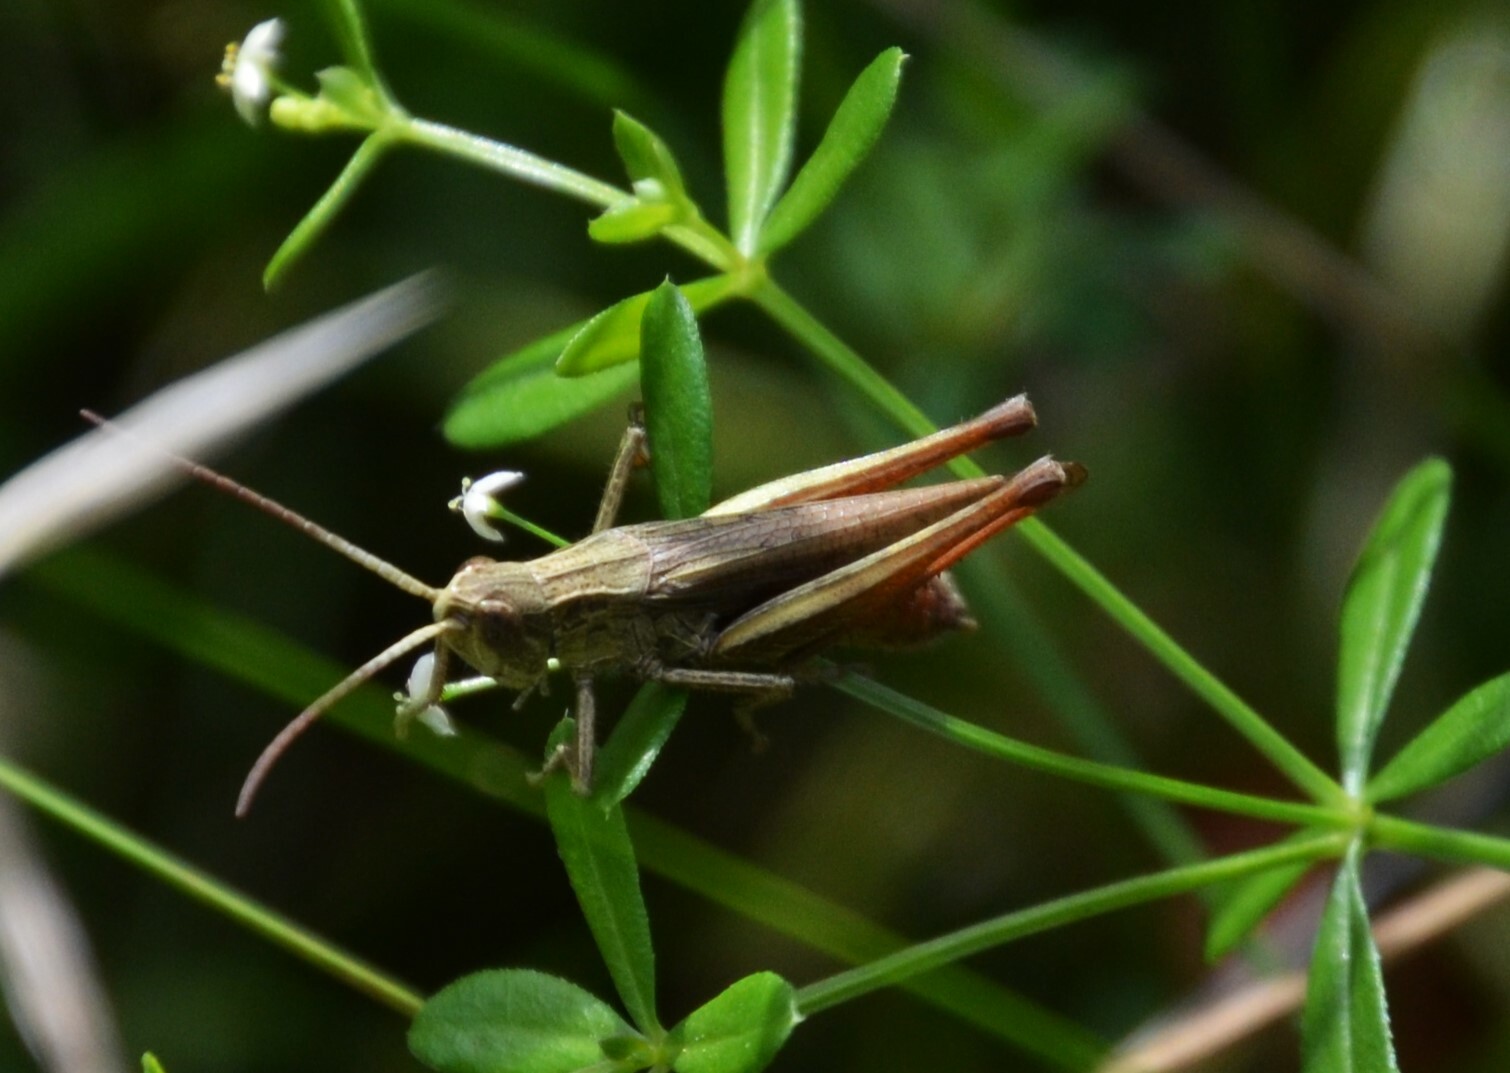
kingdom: Animalia
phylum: Arthropoda
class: Insecta
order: Orthoptera
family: Acrididae
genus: Chorthippus
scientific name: Chorthippus dorsatus
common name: Steppe grasshopper
